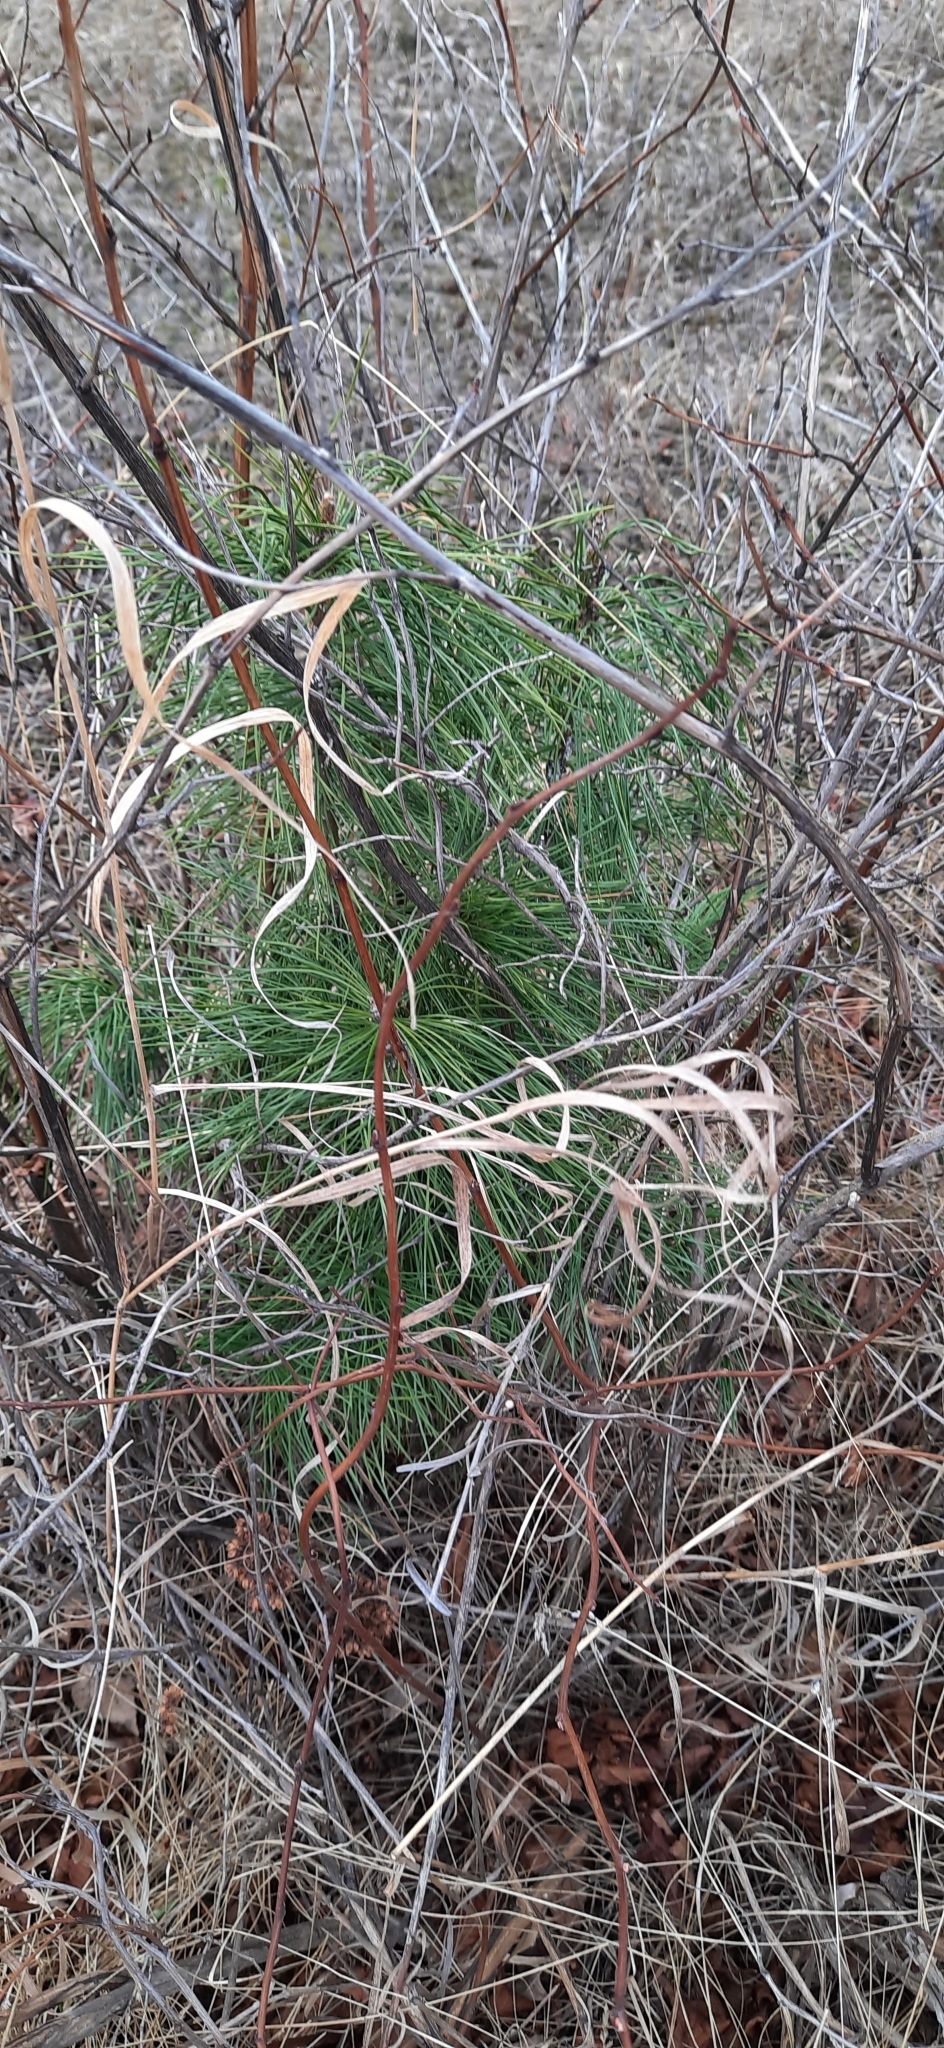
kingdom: Plantae
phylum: Tracheophyta
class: Pinopsida
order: Pinales
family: Pinaceae
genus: Pinus
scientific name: Pinus sibirica
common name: Siberian pine
